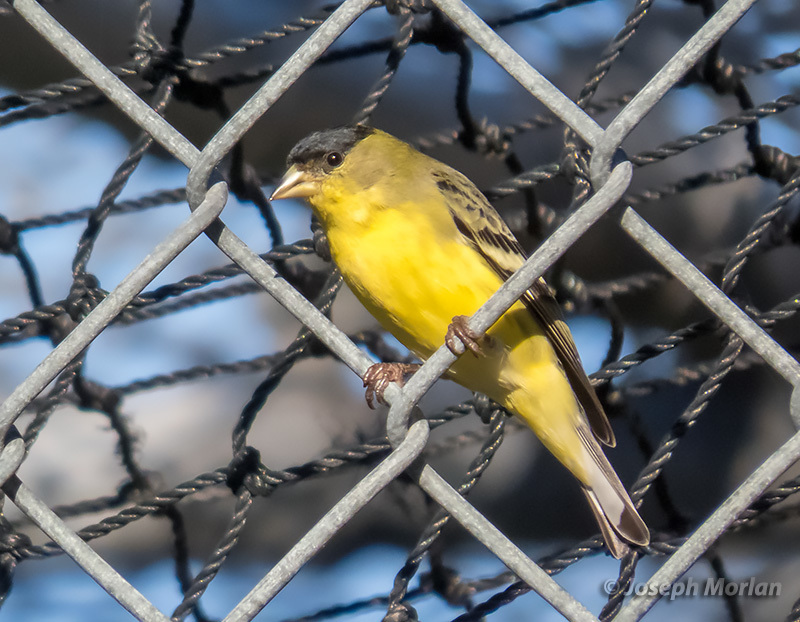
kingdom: Animalia
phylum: Chordata
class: Aves
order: Passeriformes
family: Fringillidae
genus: Spinus
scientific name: Spinus psaltria
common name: Lesser goldfinch
